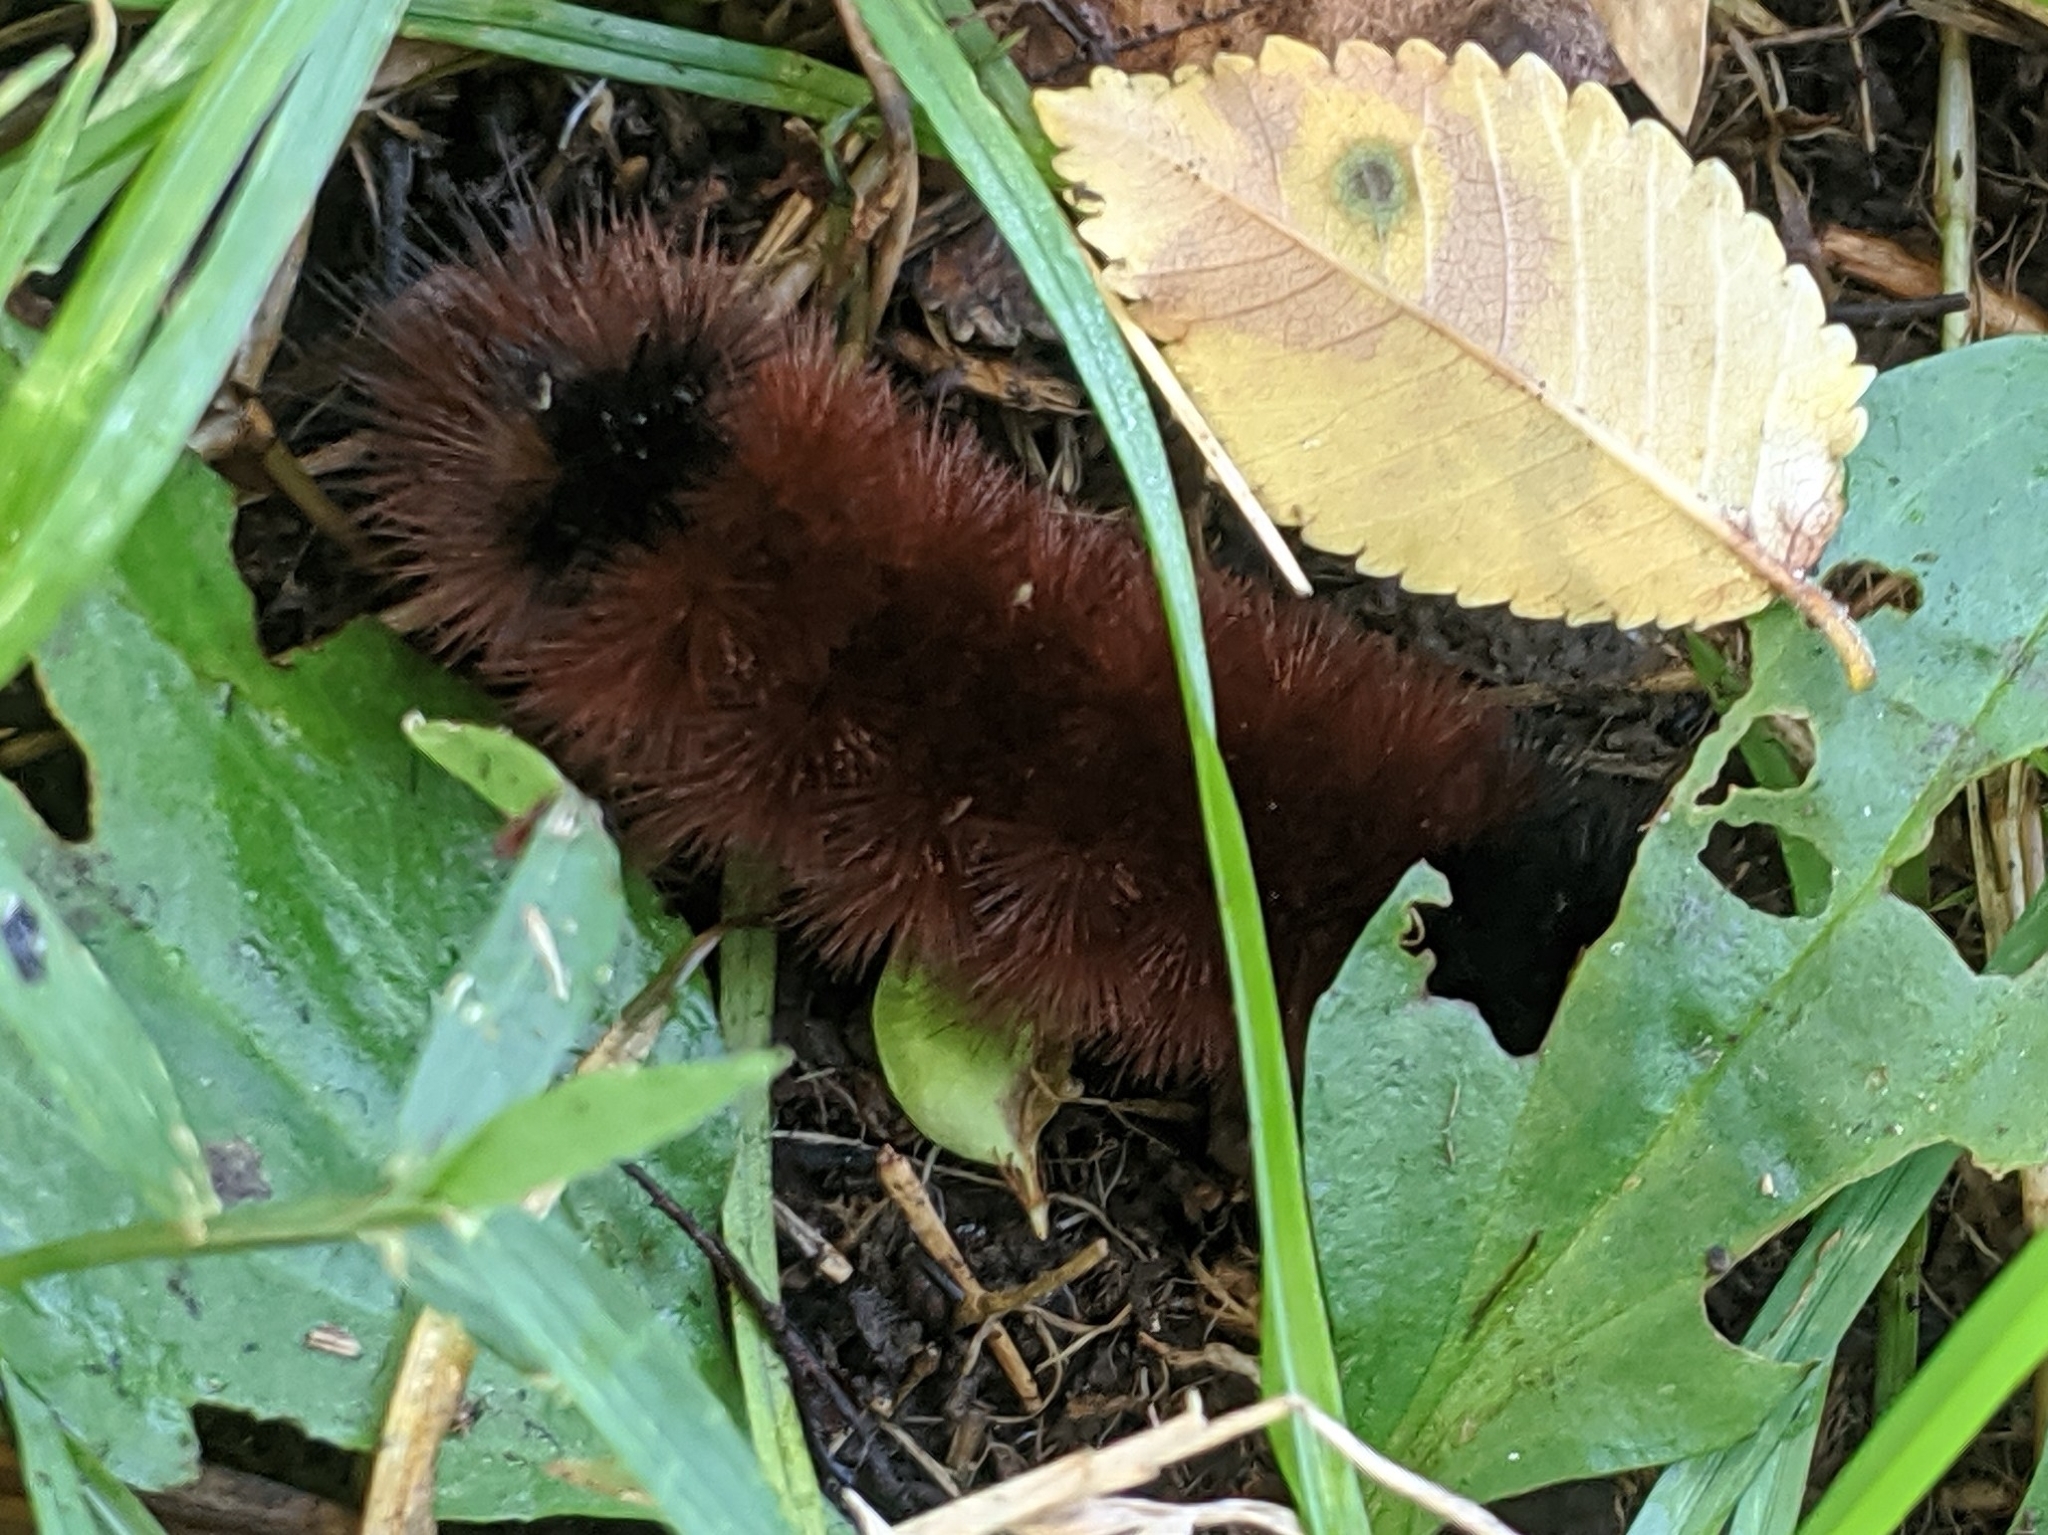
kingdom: Animalia
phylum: Arthropoda
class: Insecta
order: Lepidoptera
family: Erebidae
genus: Pyrrharctia
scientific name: Pyrrharctia isabella
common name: Isabella tiger moth
